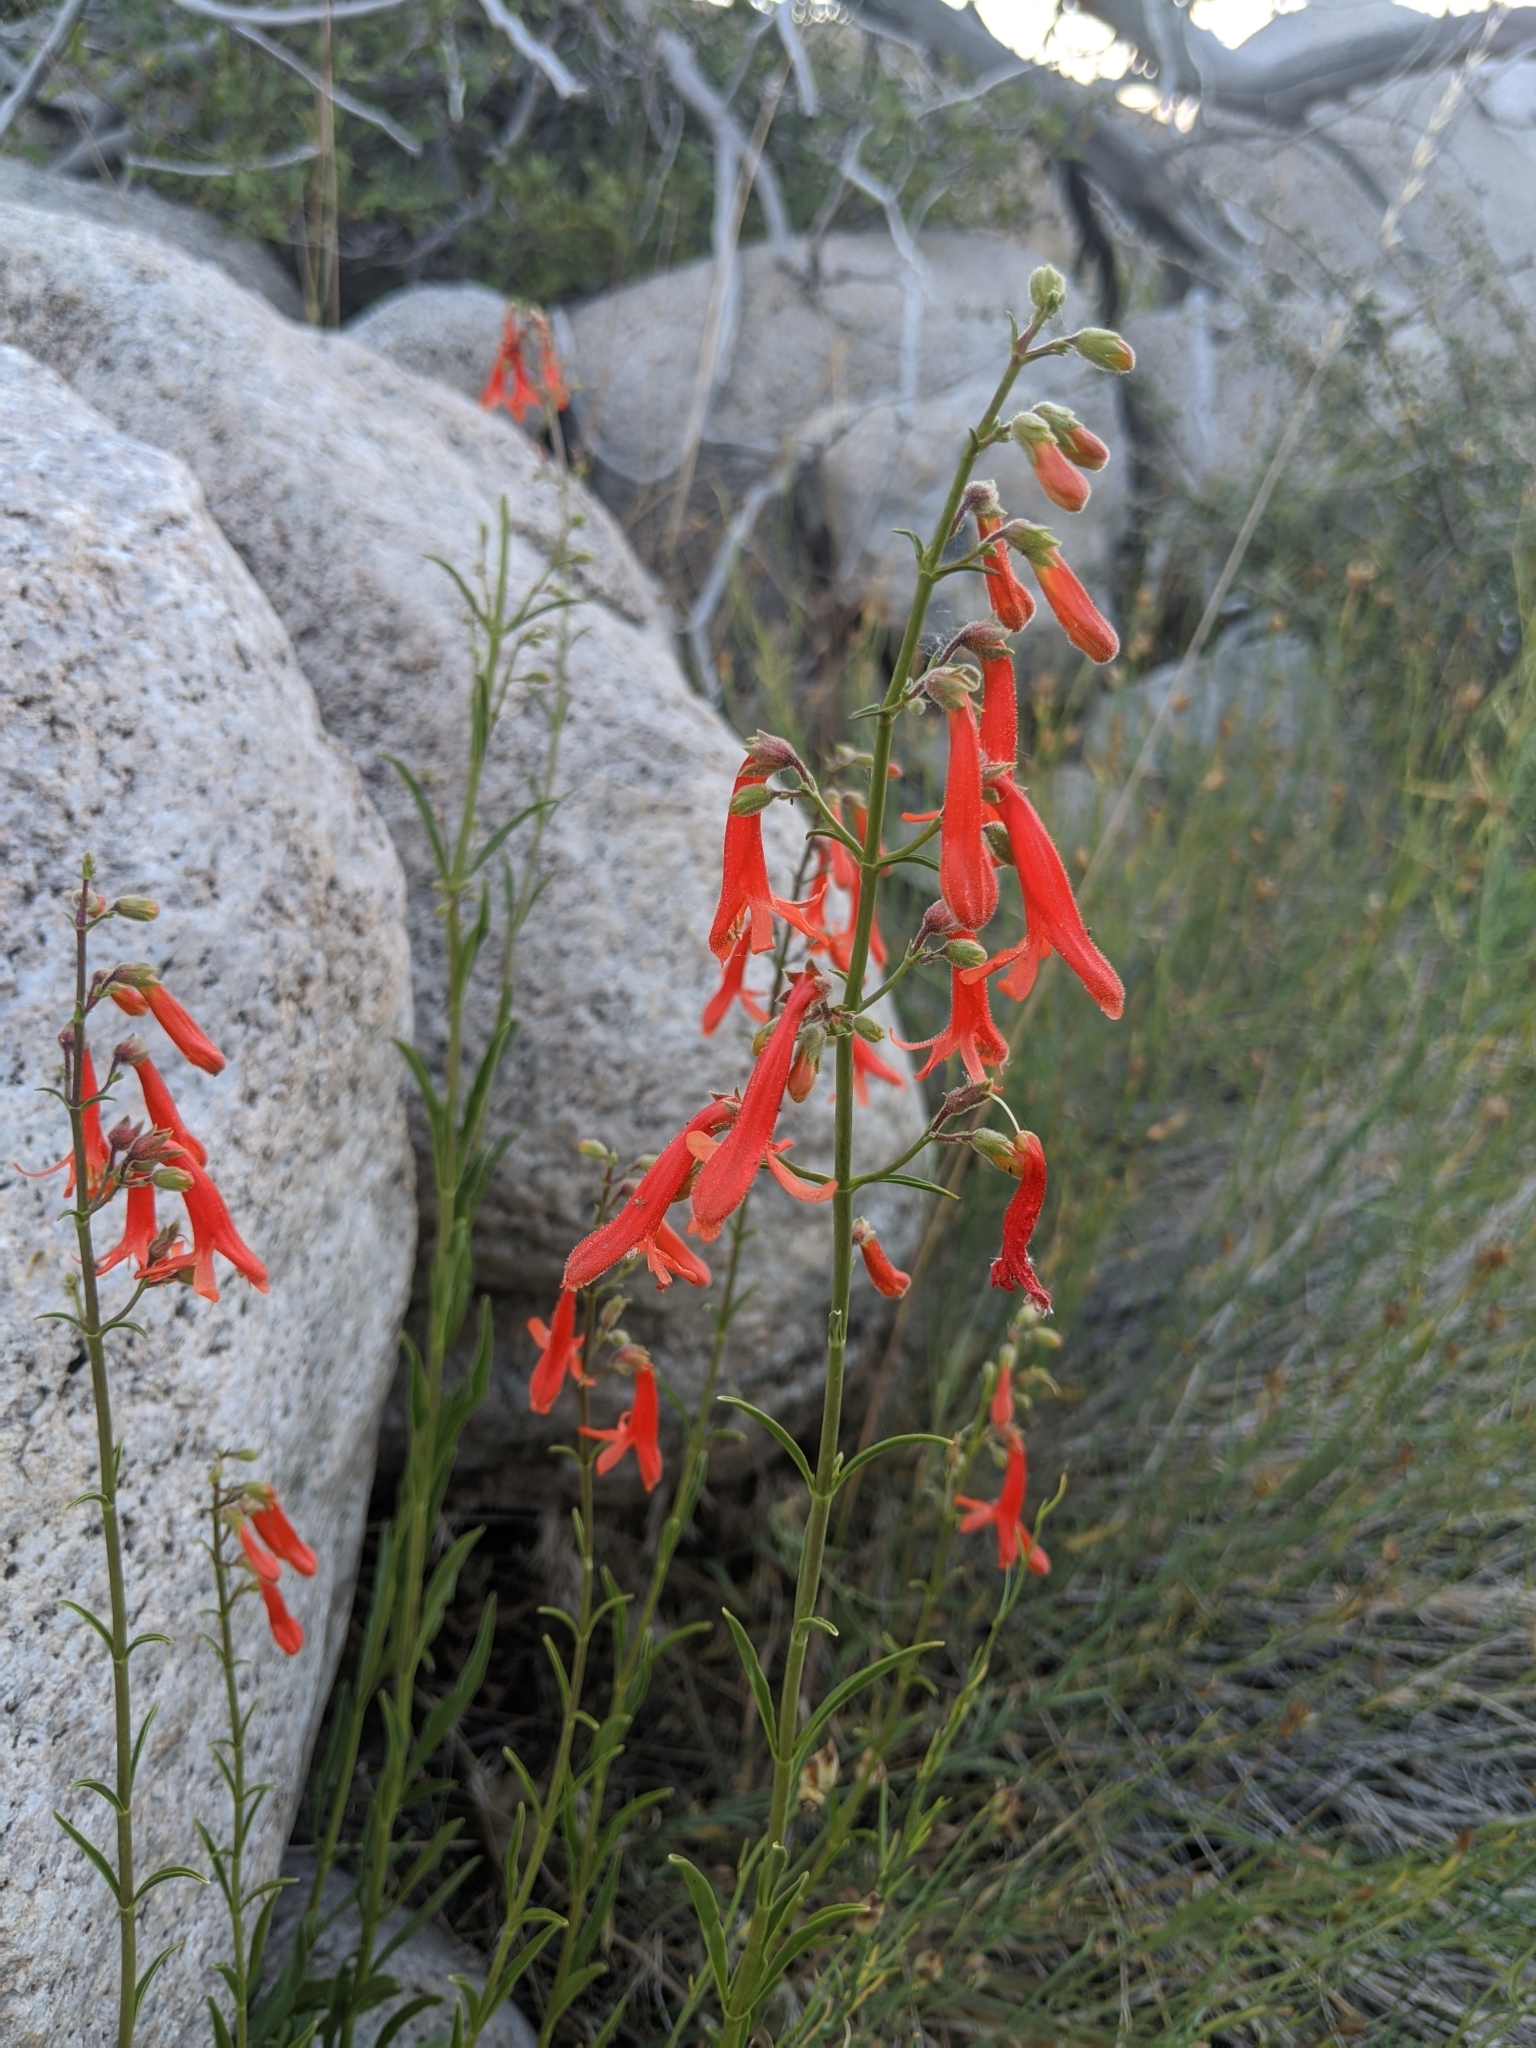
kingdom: Plantae
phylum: Tracheophyta
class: Magnoliopsida
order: Lamiales
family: Plantaginaceae
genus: Penstemon
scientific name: Penstemon rostriflorus
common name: Bridges's penstemon
